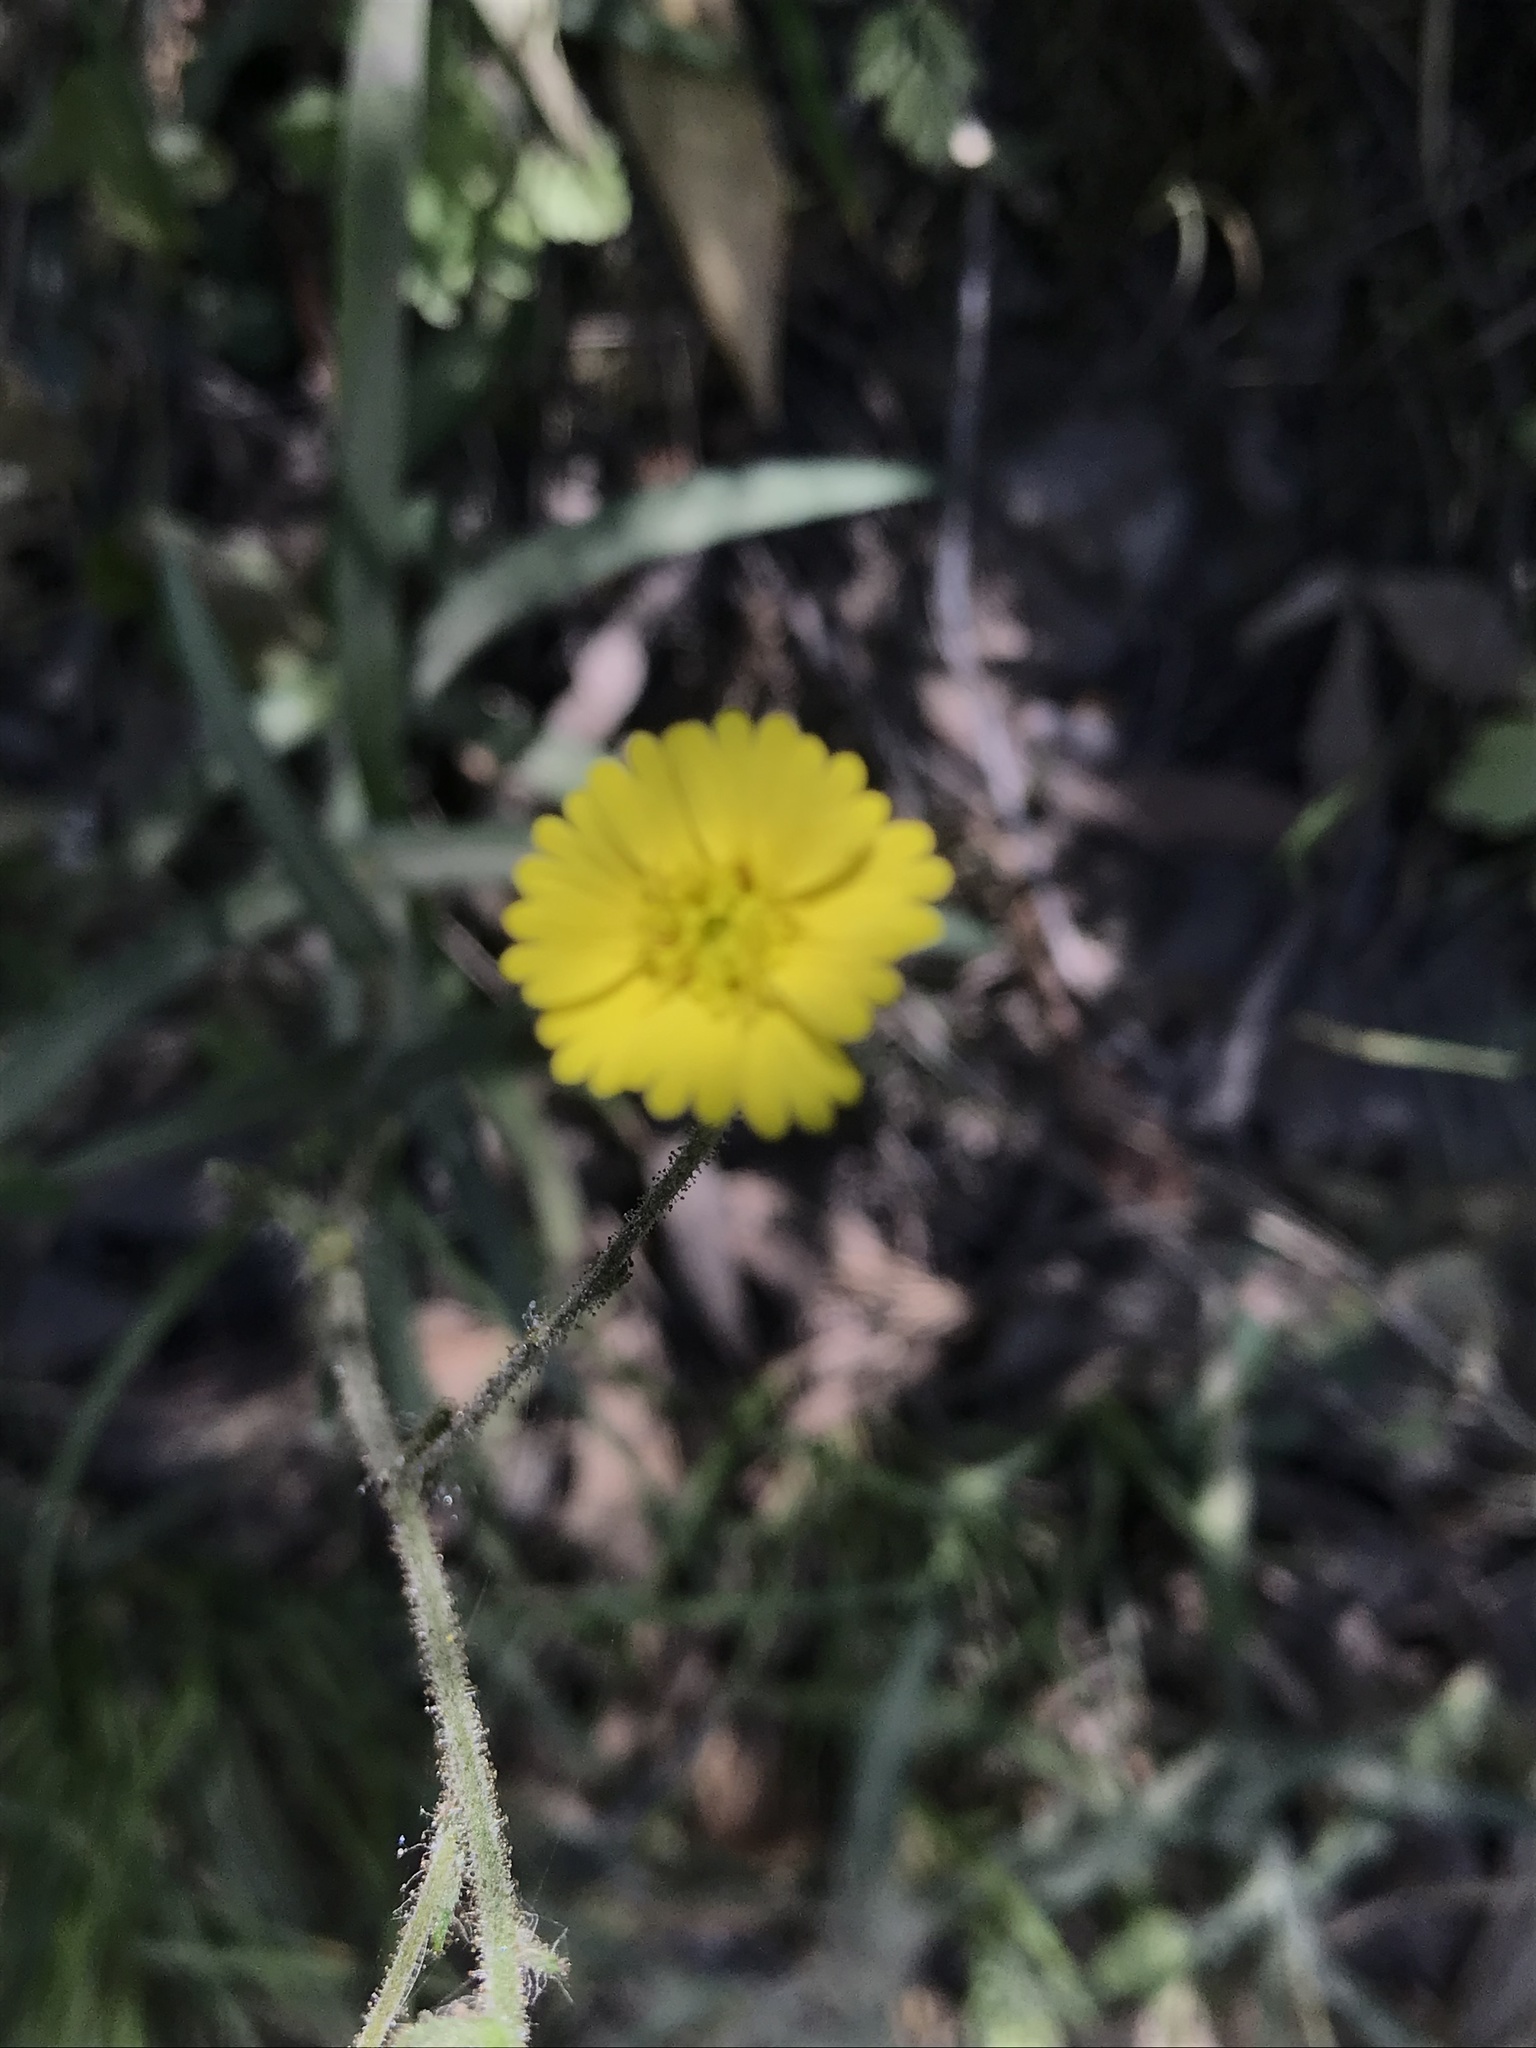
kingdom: Plantae
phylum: Tracheophyta
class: Magnoliopsida
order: Asterales
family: Asteraceae
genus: Anisocarpus
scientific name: Anisocarpus madioides
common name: Woodland madia
